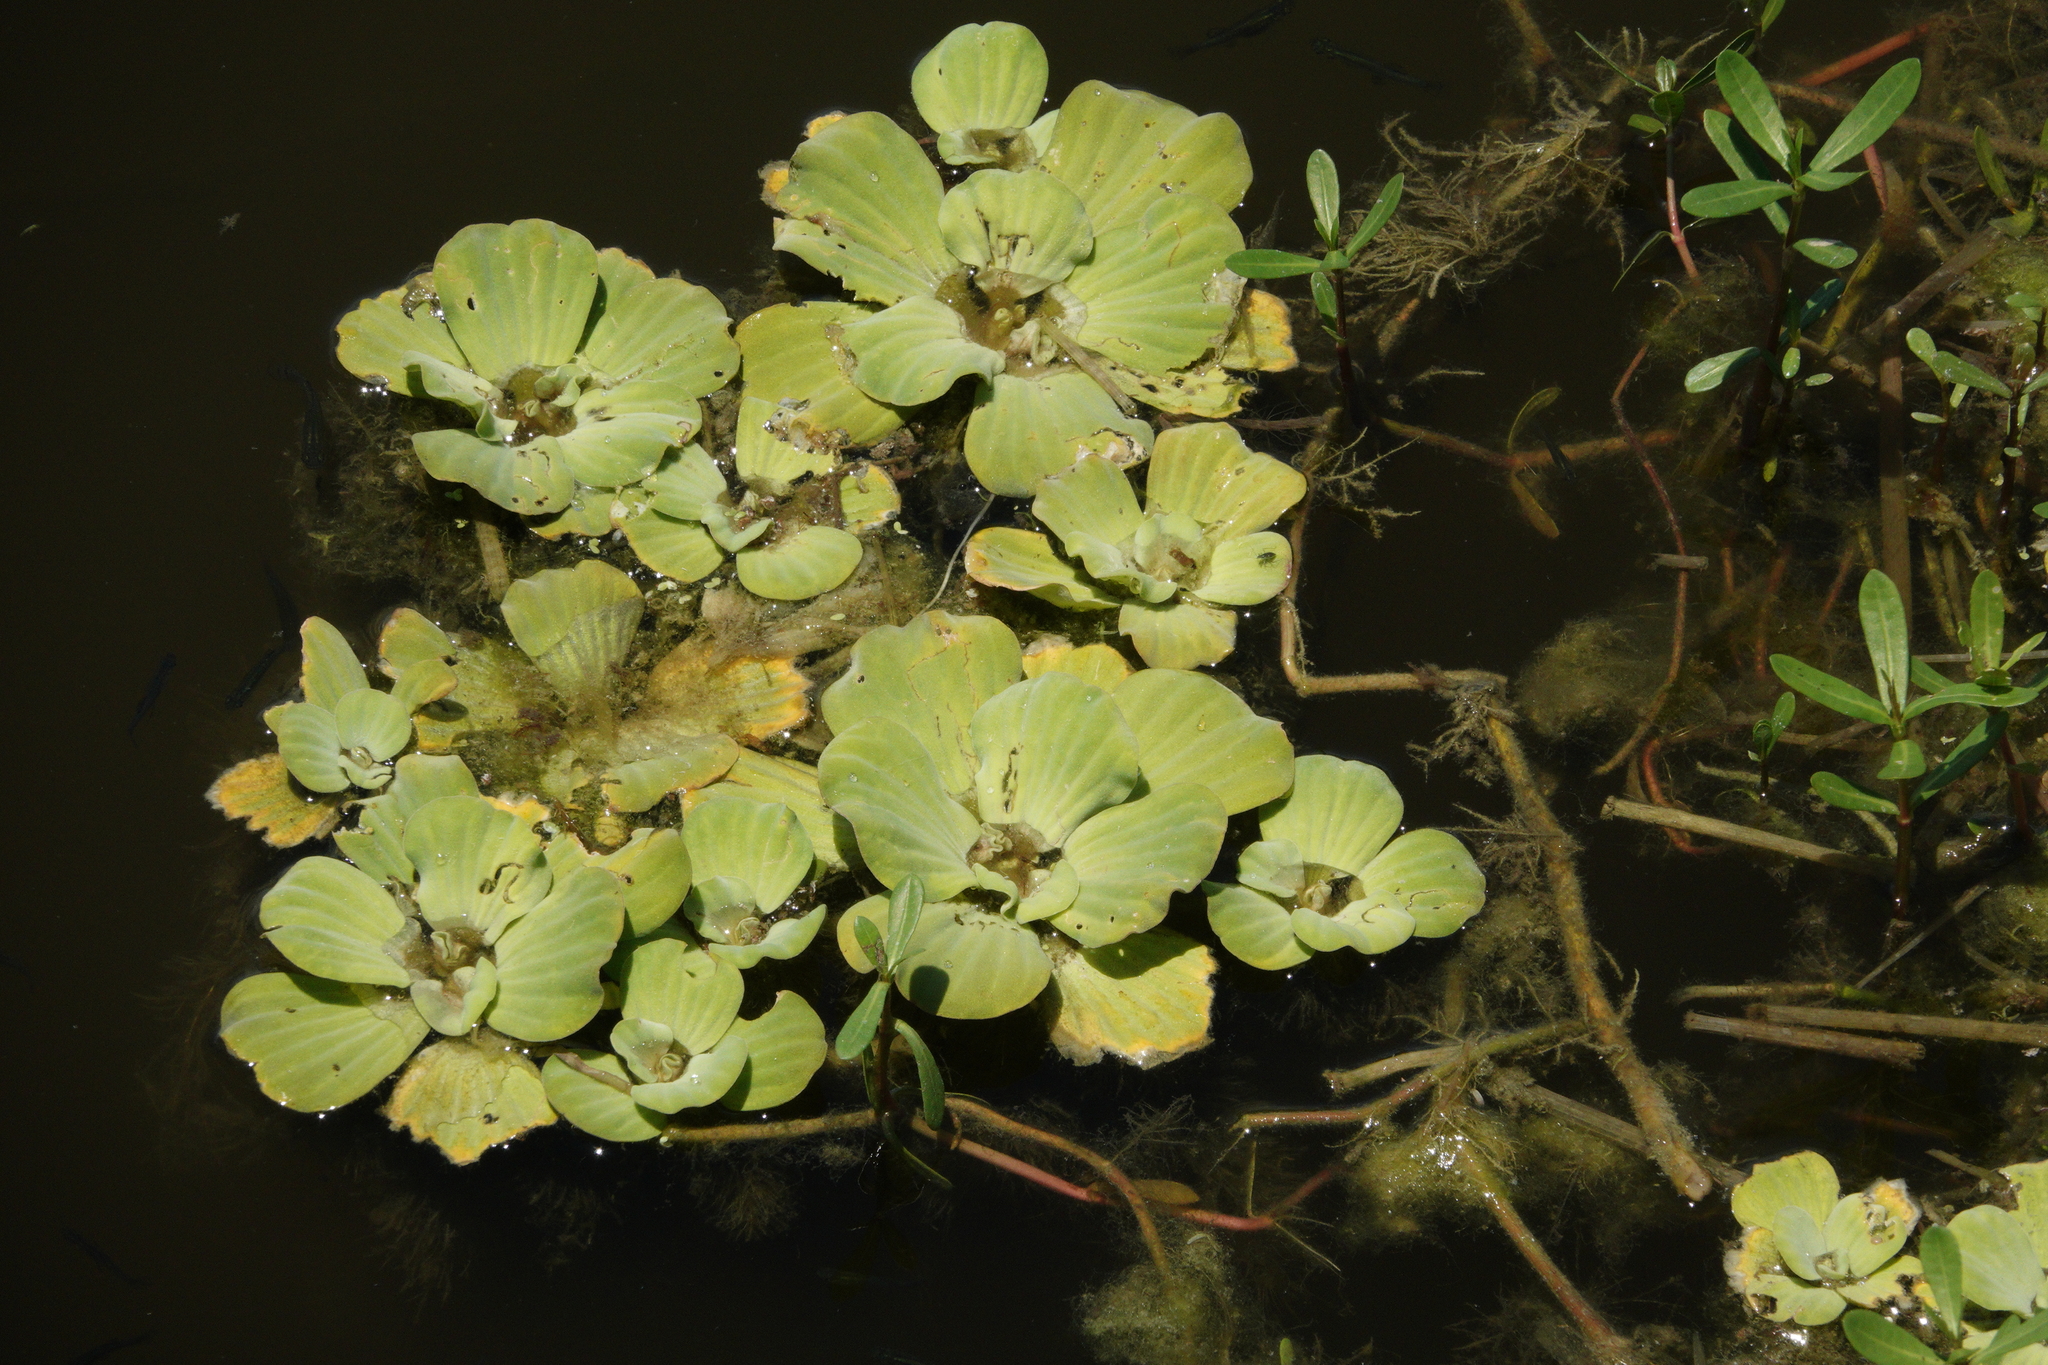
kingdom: Plantae
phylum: Tracheophyta
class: Liliopsida
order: Alismatales
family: Araceae
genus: Pistia
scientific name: Pistia stratiotes
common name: Water lettuce
